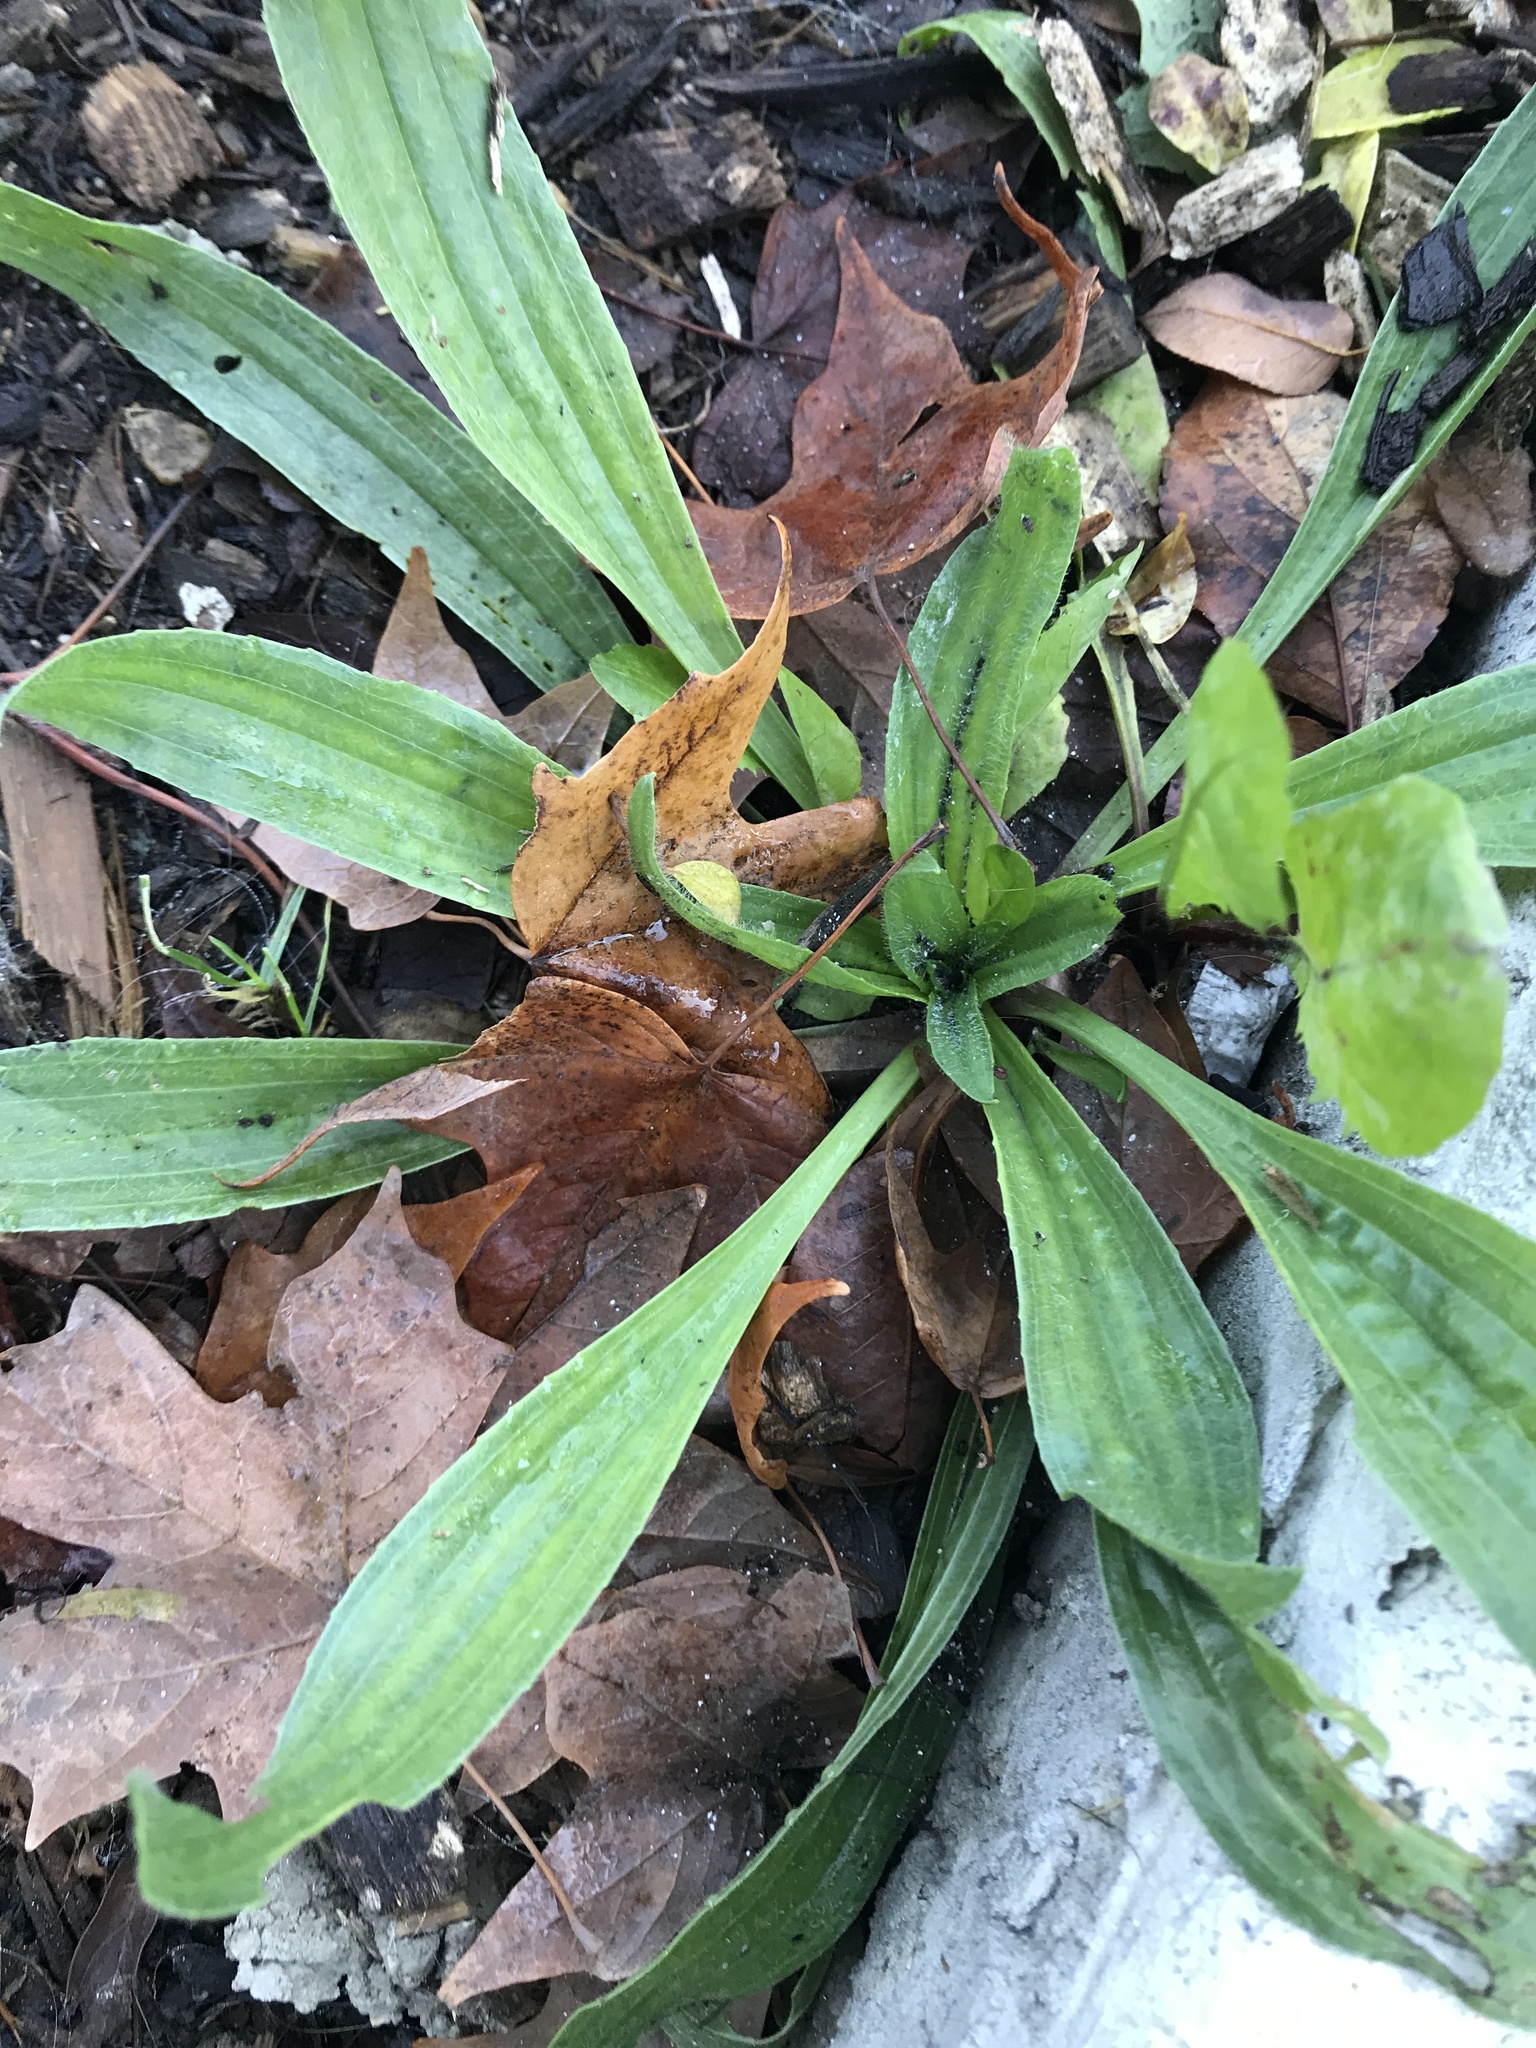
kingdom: Plantae
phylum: Tracheophyta
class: Magnoliopsida
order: Lamiales
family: Plantaginaceae
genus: Plantago
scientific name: Plantago lanceolata
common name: Ribwort plantain
